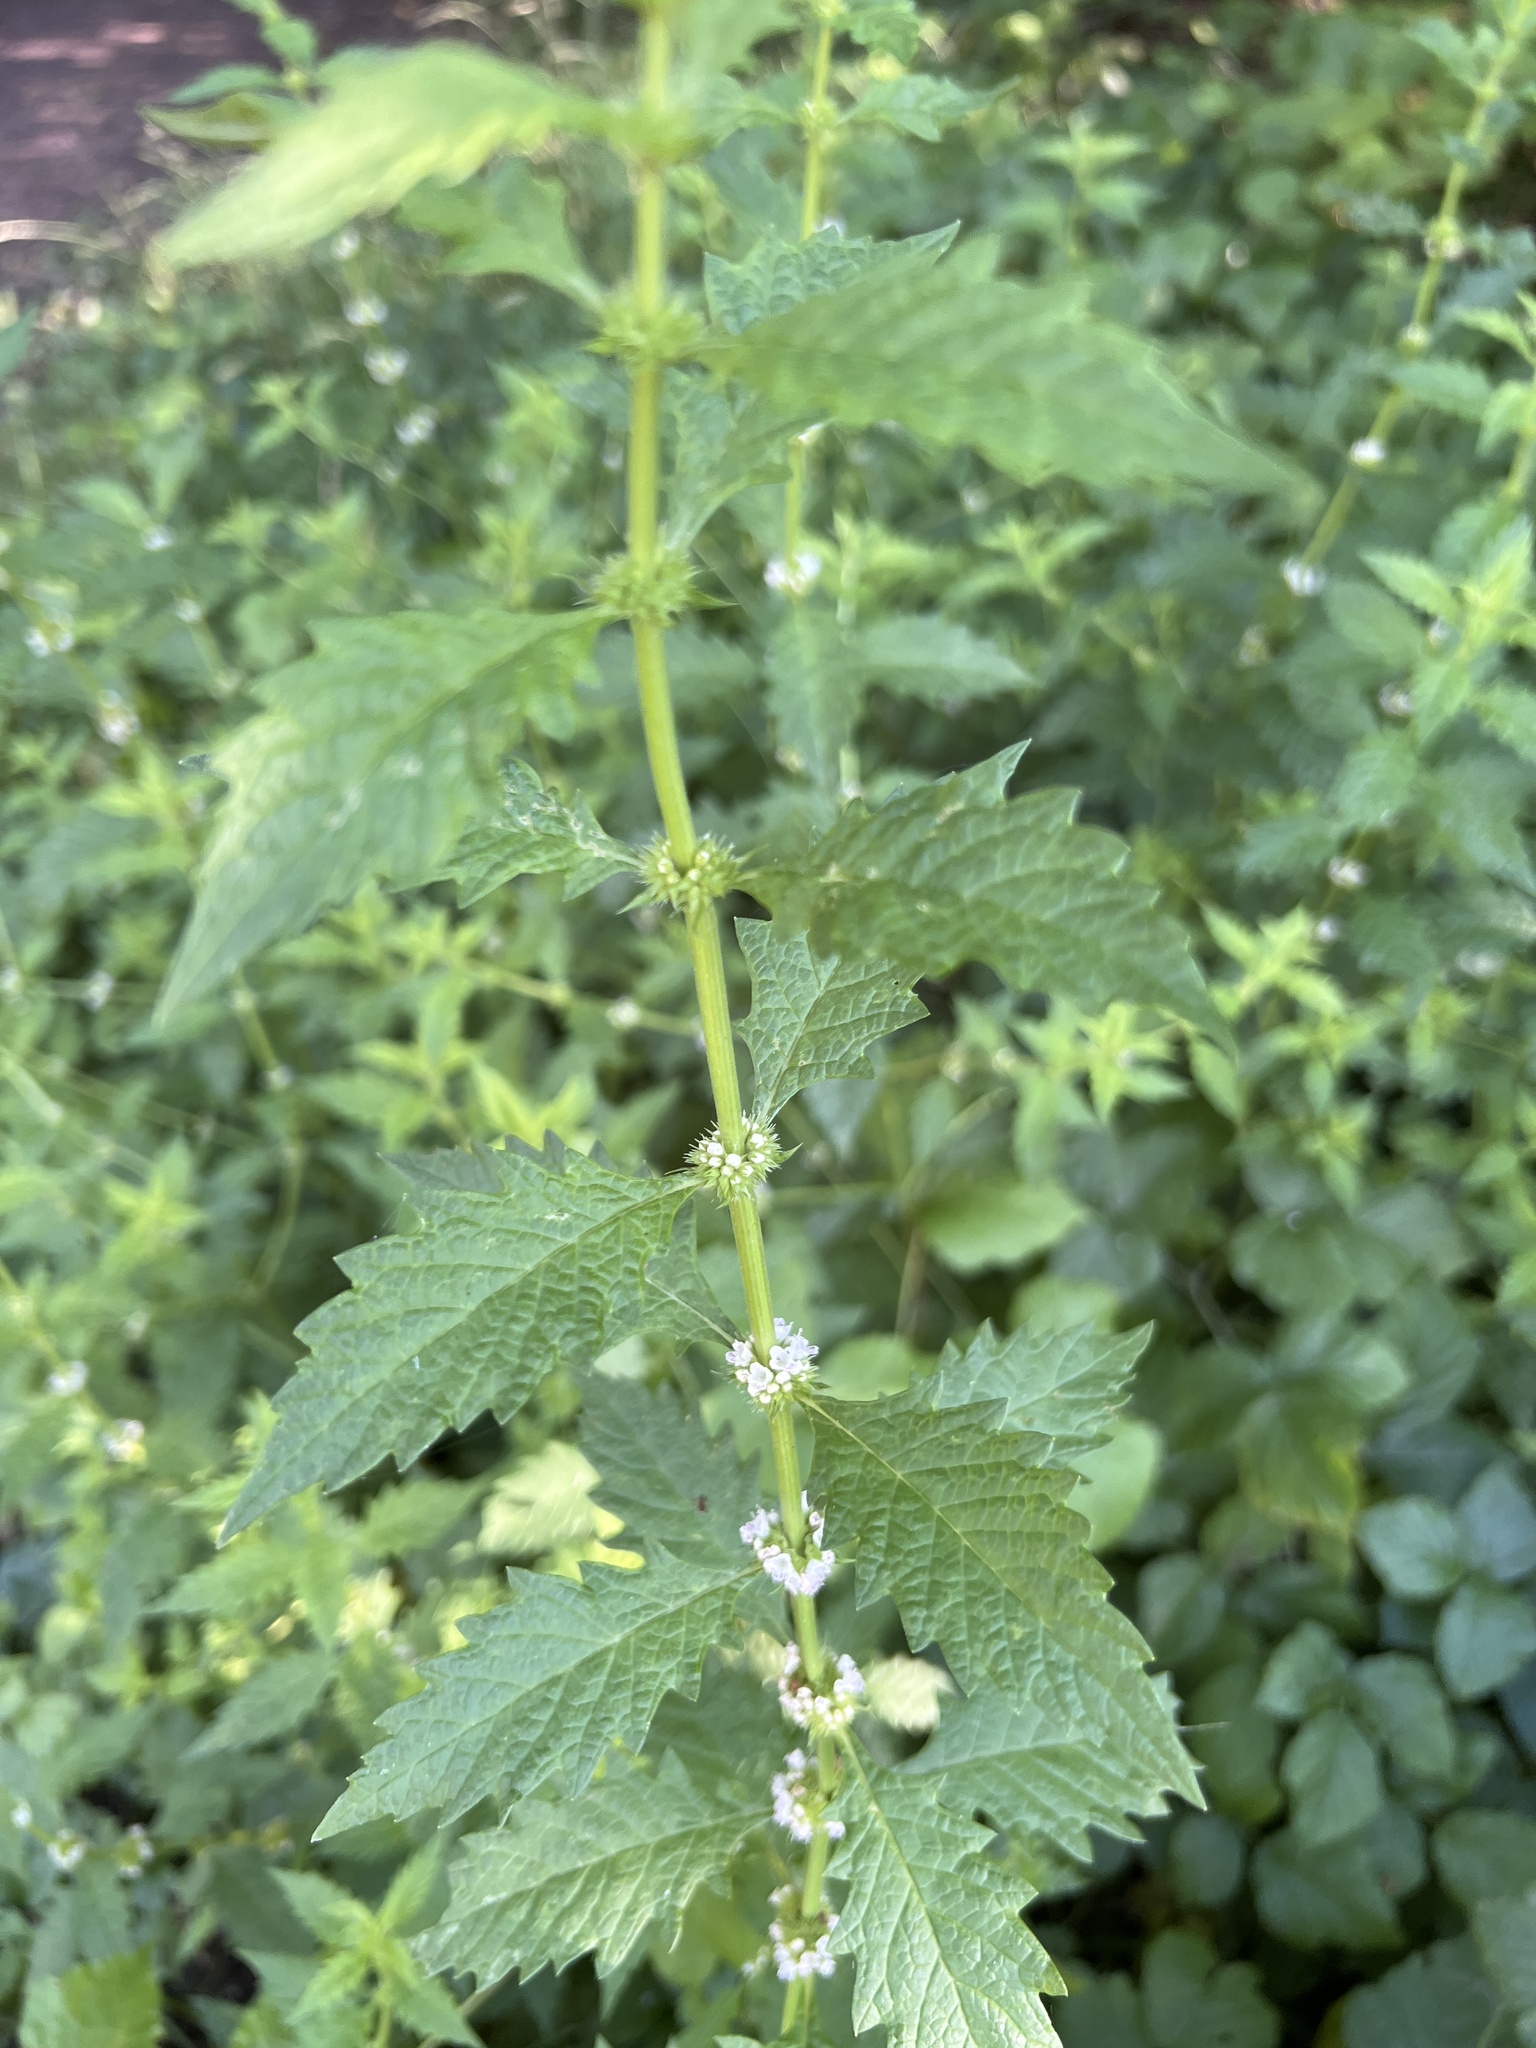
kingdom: Plantae
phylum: Tracheophyta
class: Magnoliopsida
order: Lamiales
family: Lamiaceae
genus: Lycopus
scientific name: Lycopus europaeus
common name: European bugleweed
